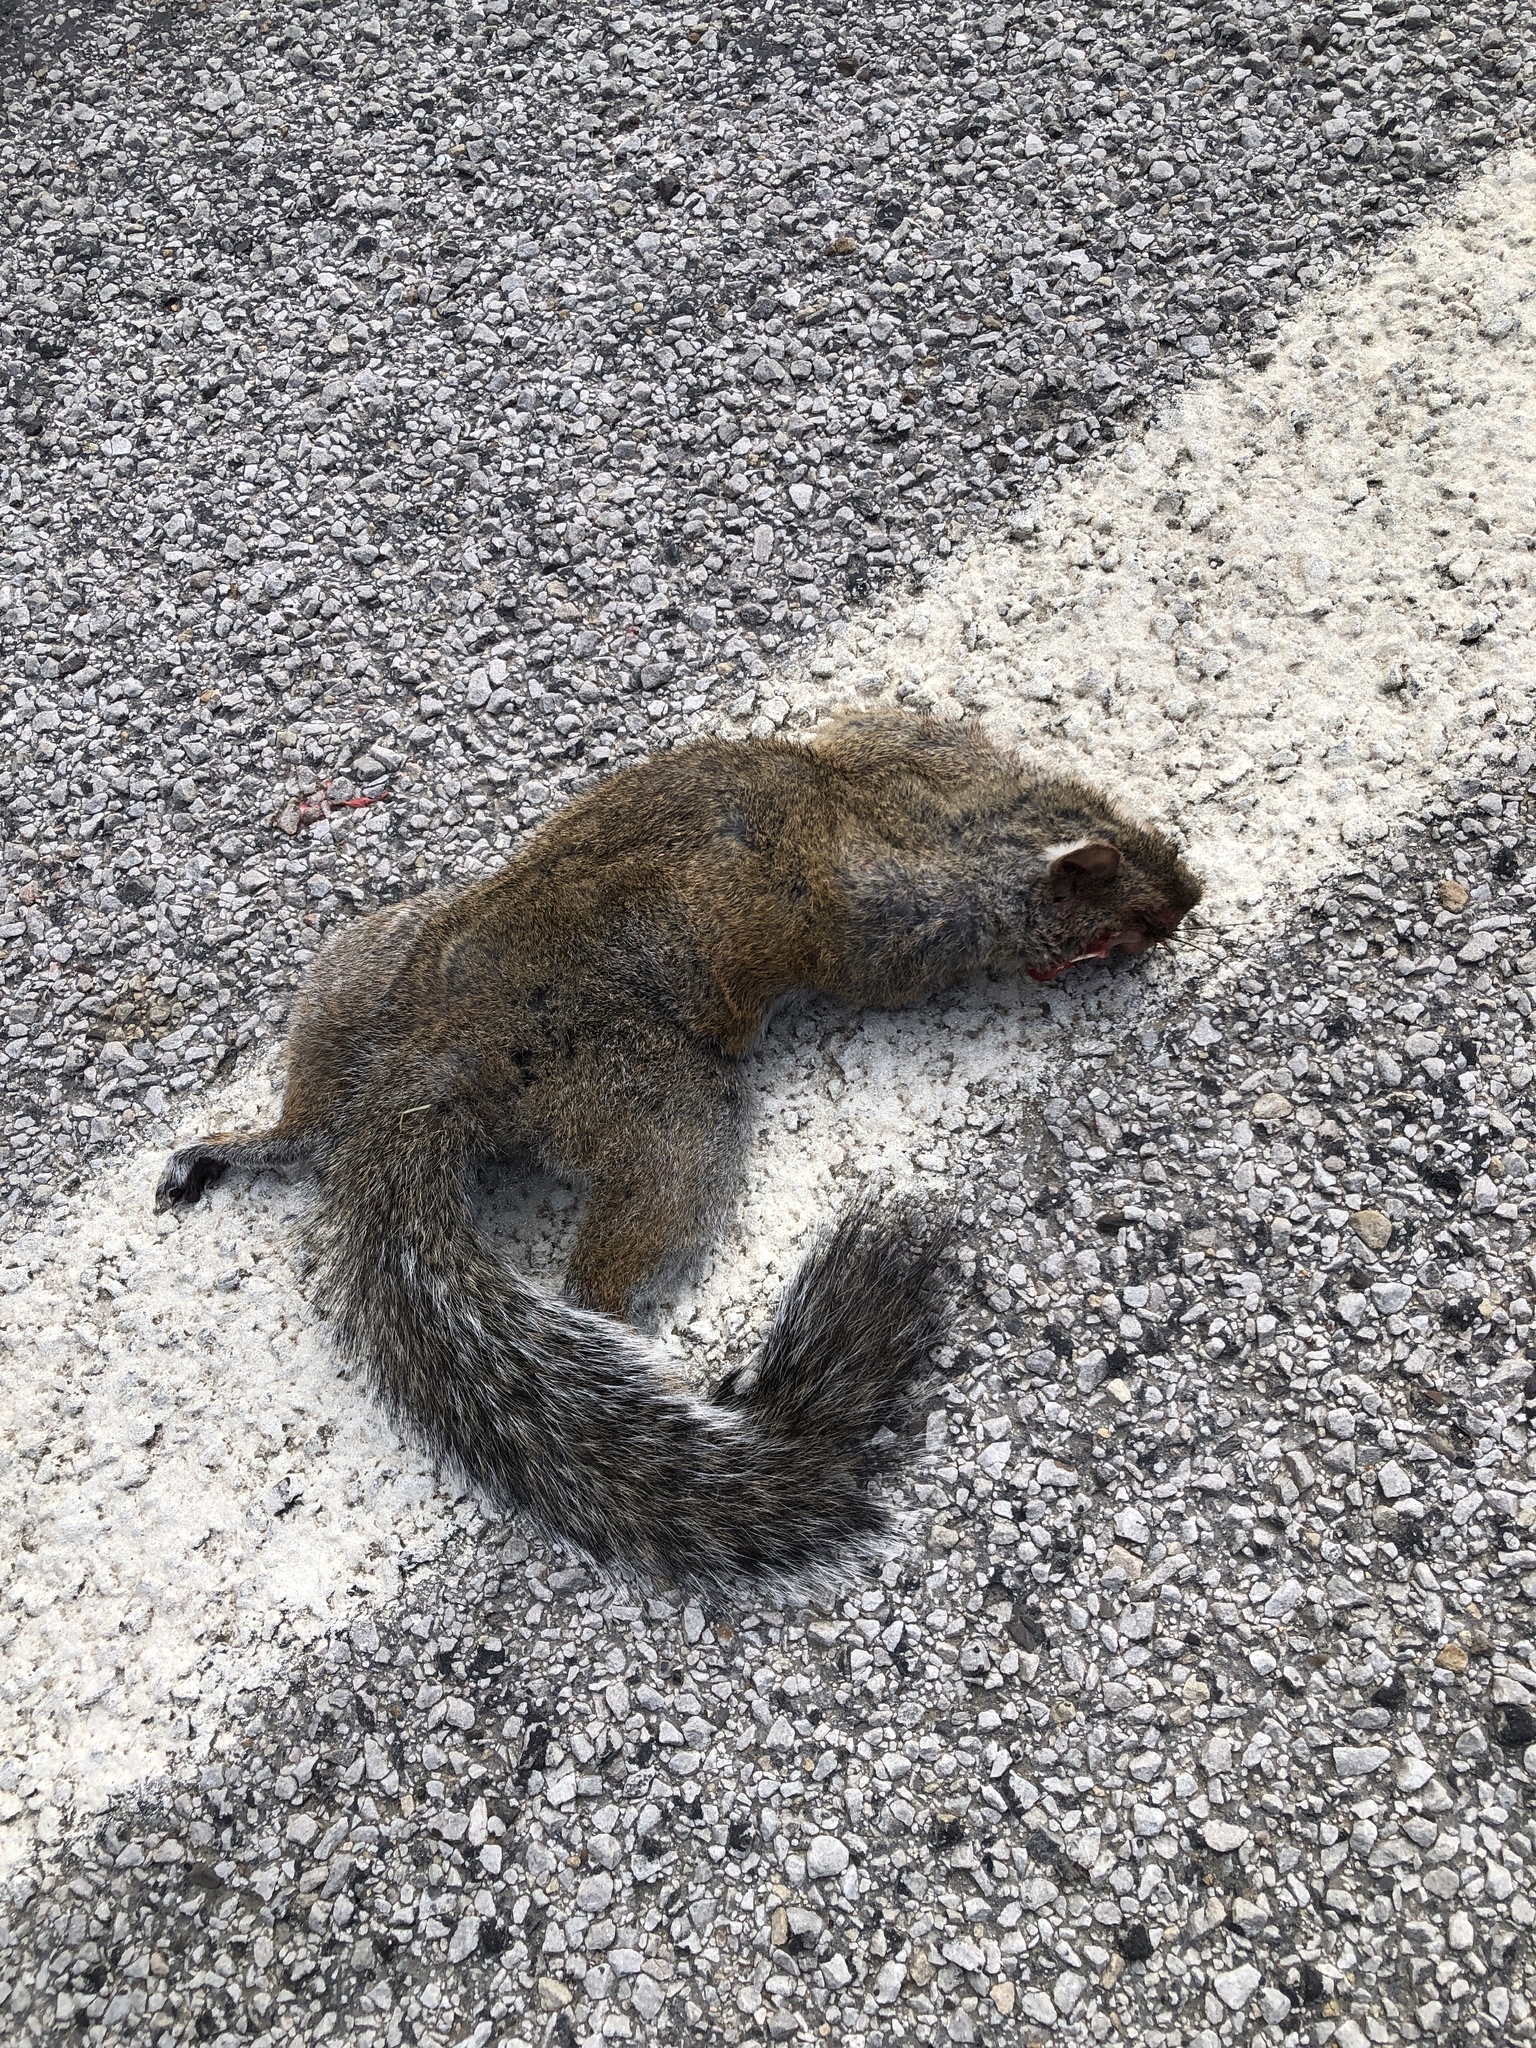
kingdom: Animalia
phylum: Chordata
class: Mammalia
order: Rodentia
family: Sciuridae
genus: Sciurus
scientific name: Sciurus carolinensis
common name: Eastern gray squirrel
